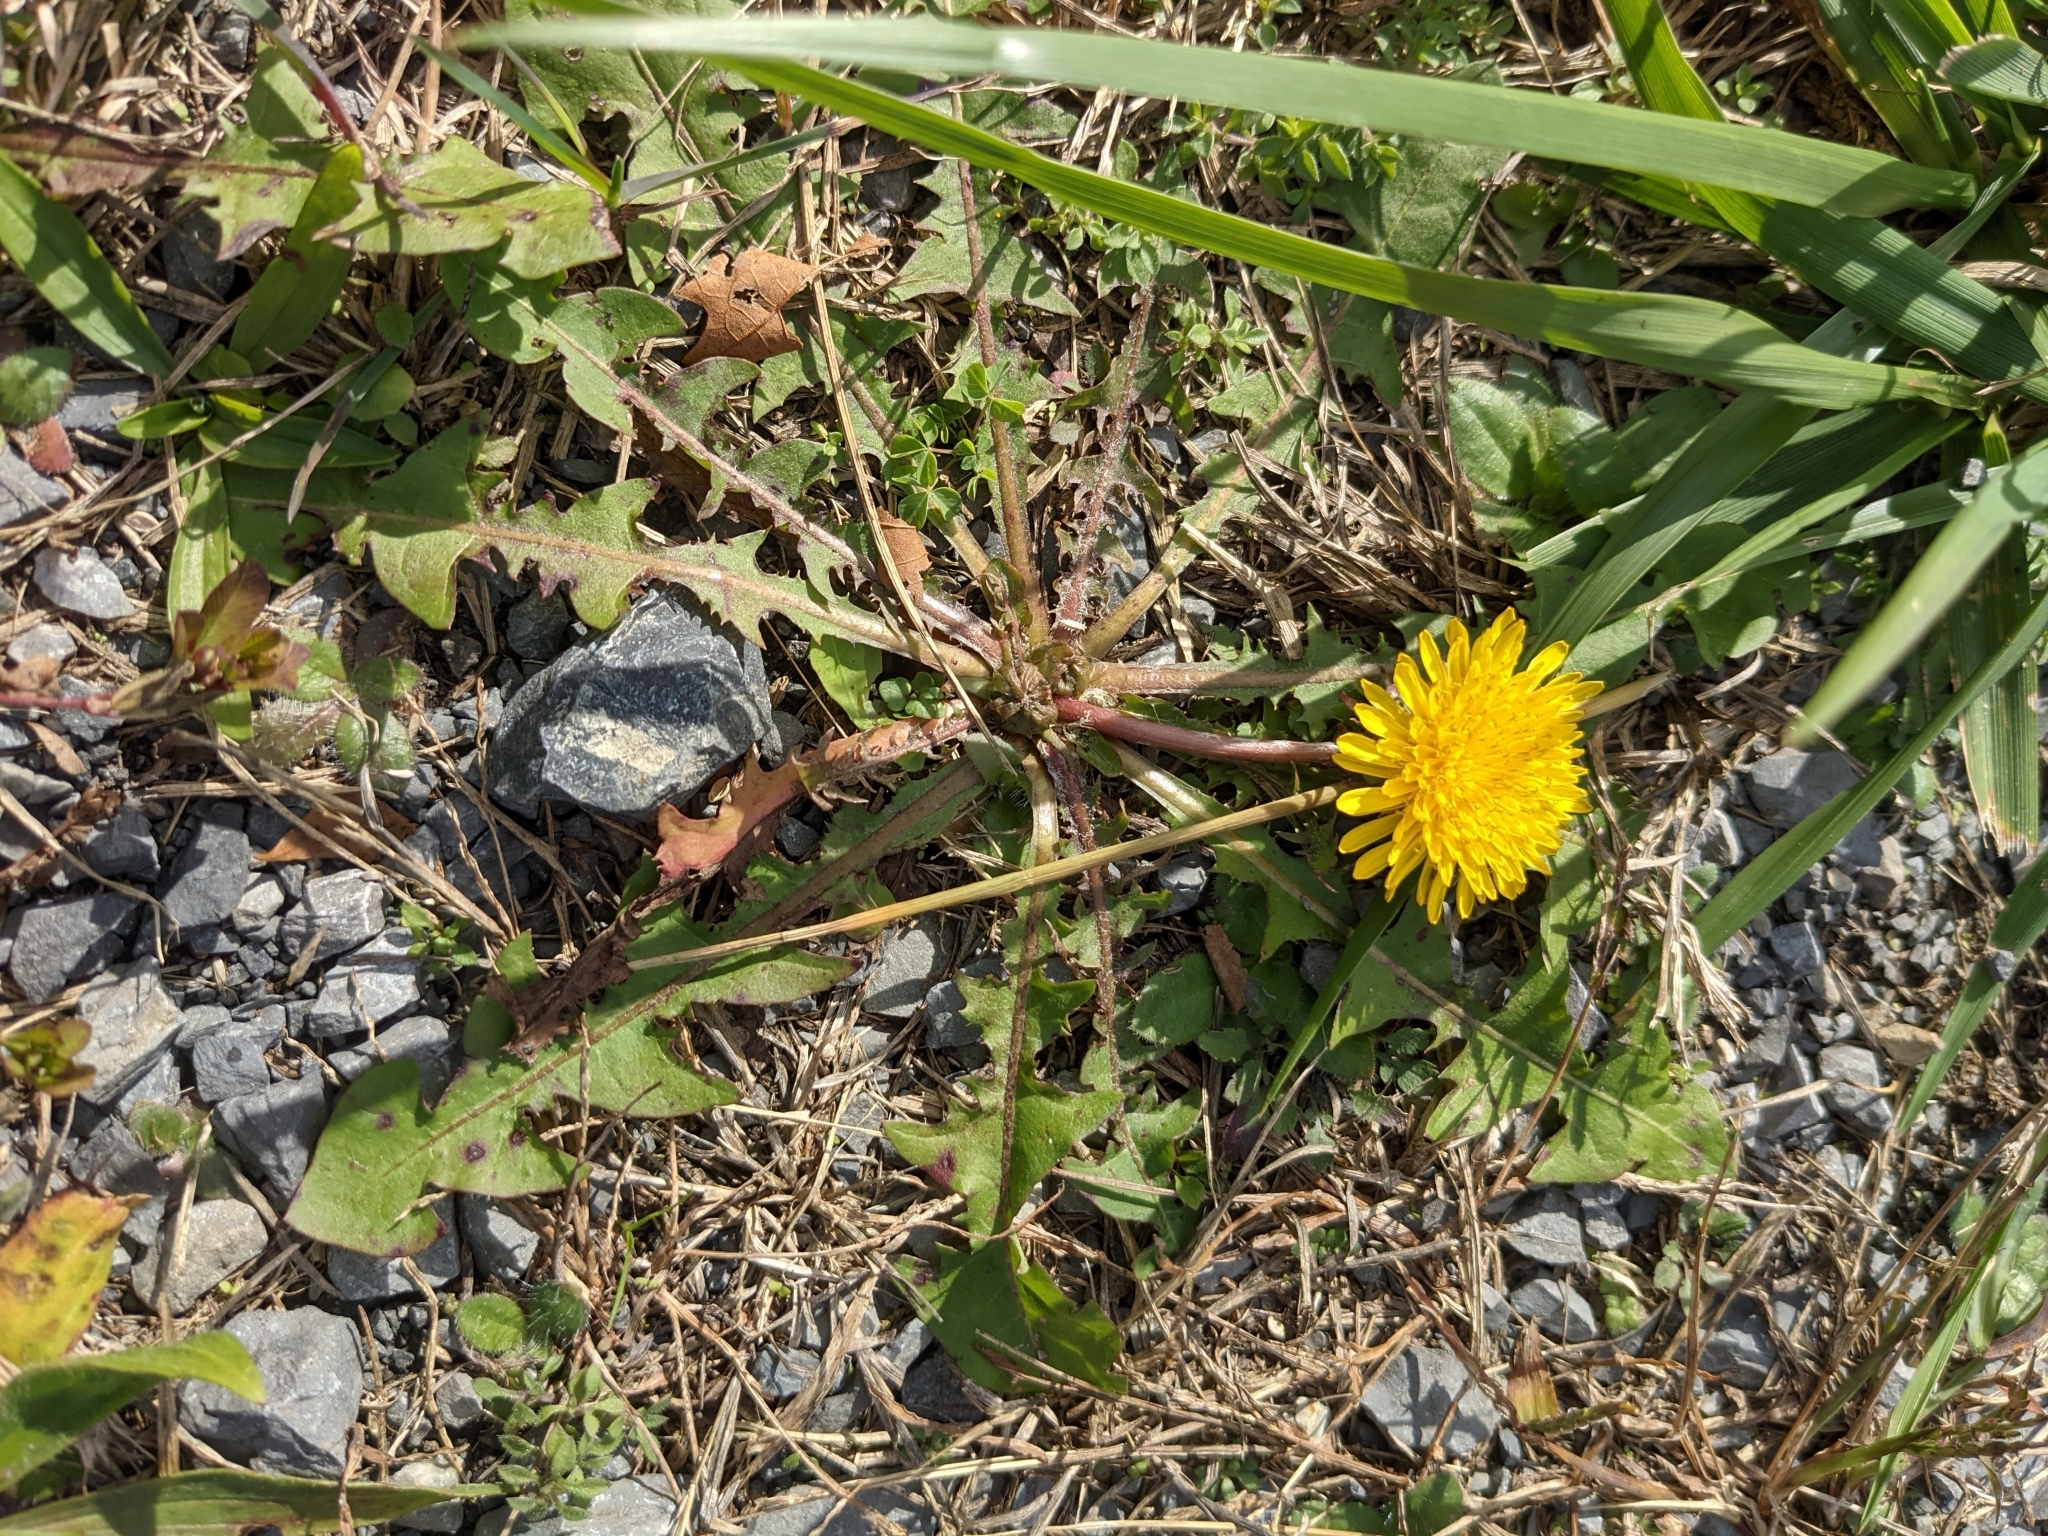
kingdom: Plantae
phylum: Tracheophyta
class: Magnoliopsida
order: Asterales
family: Asteraceae
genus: Taraxacum
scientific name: Taraxacum officinale
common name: Common dandelion
